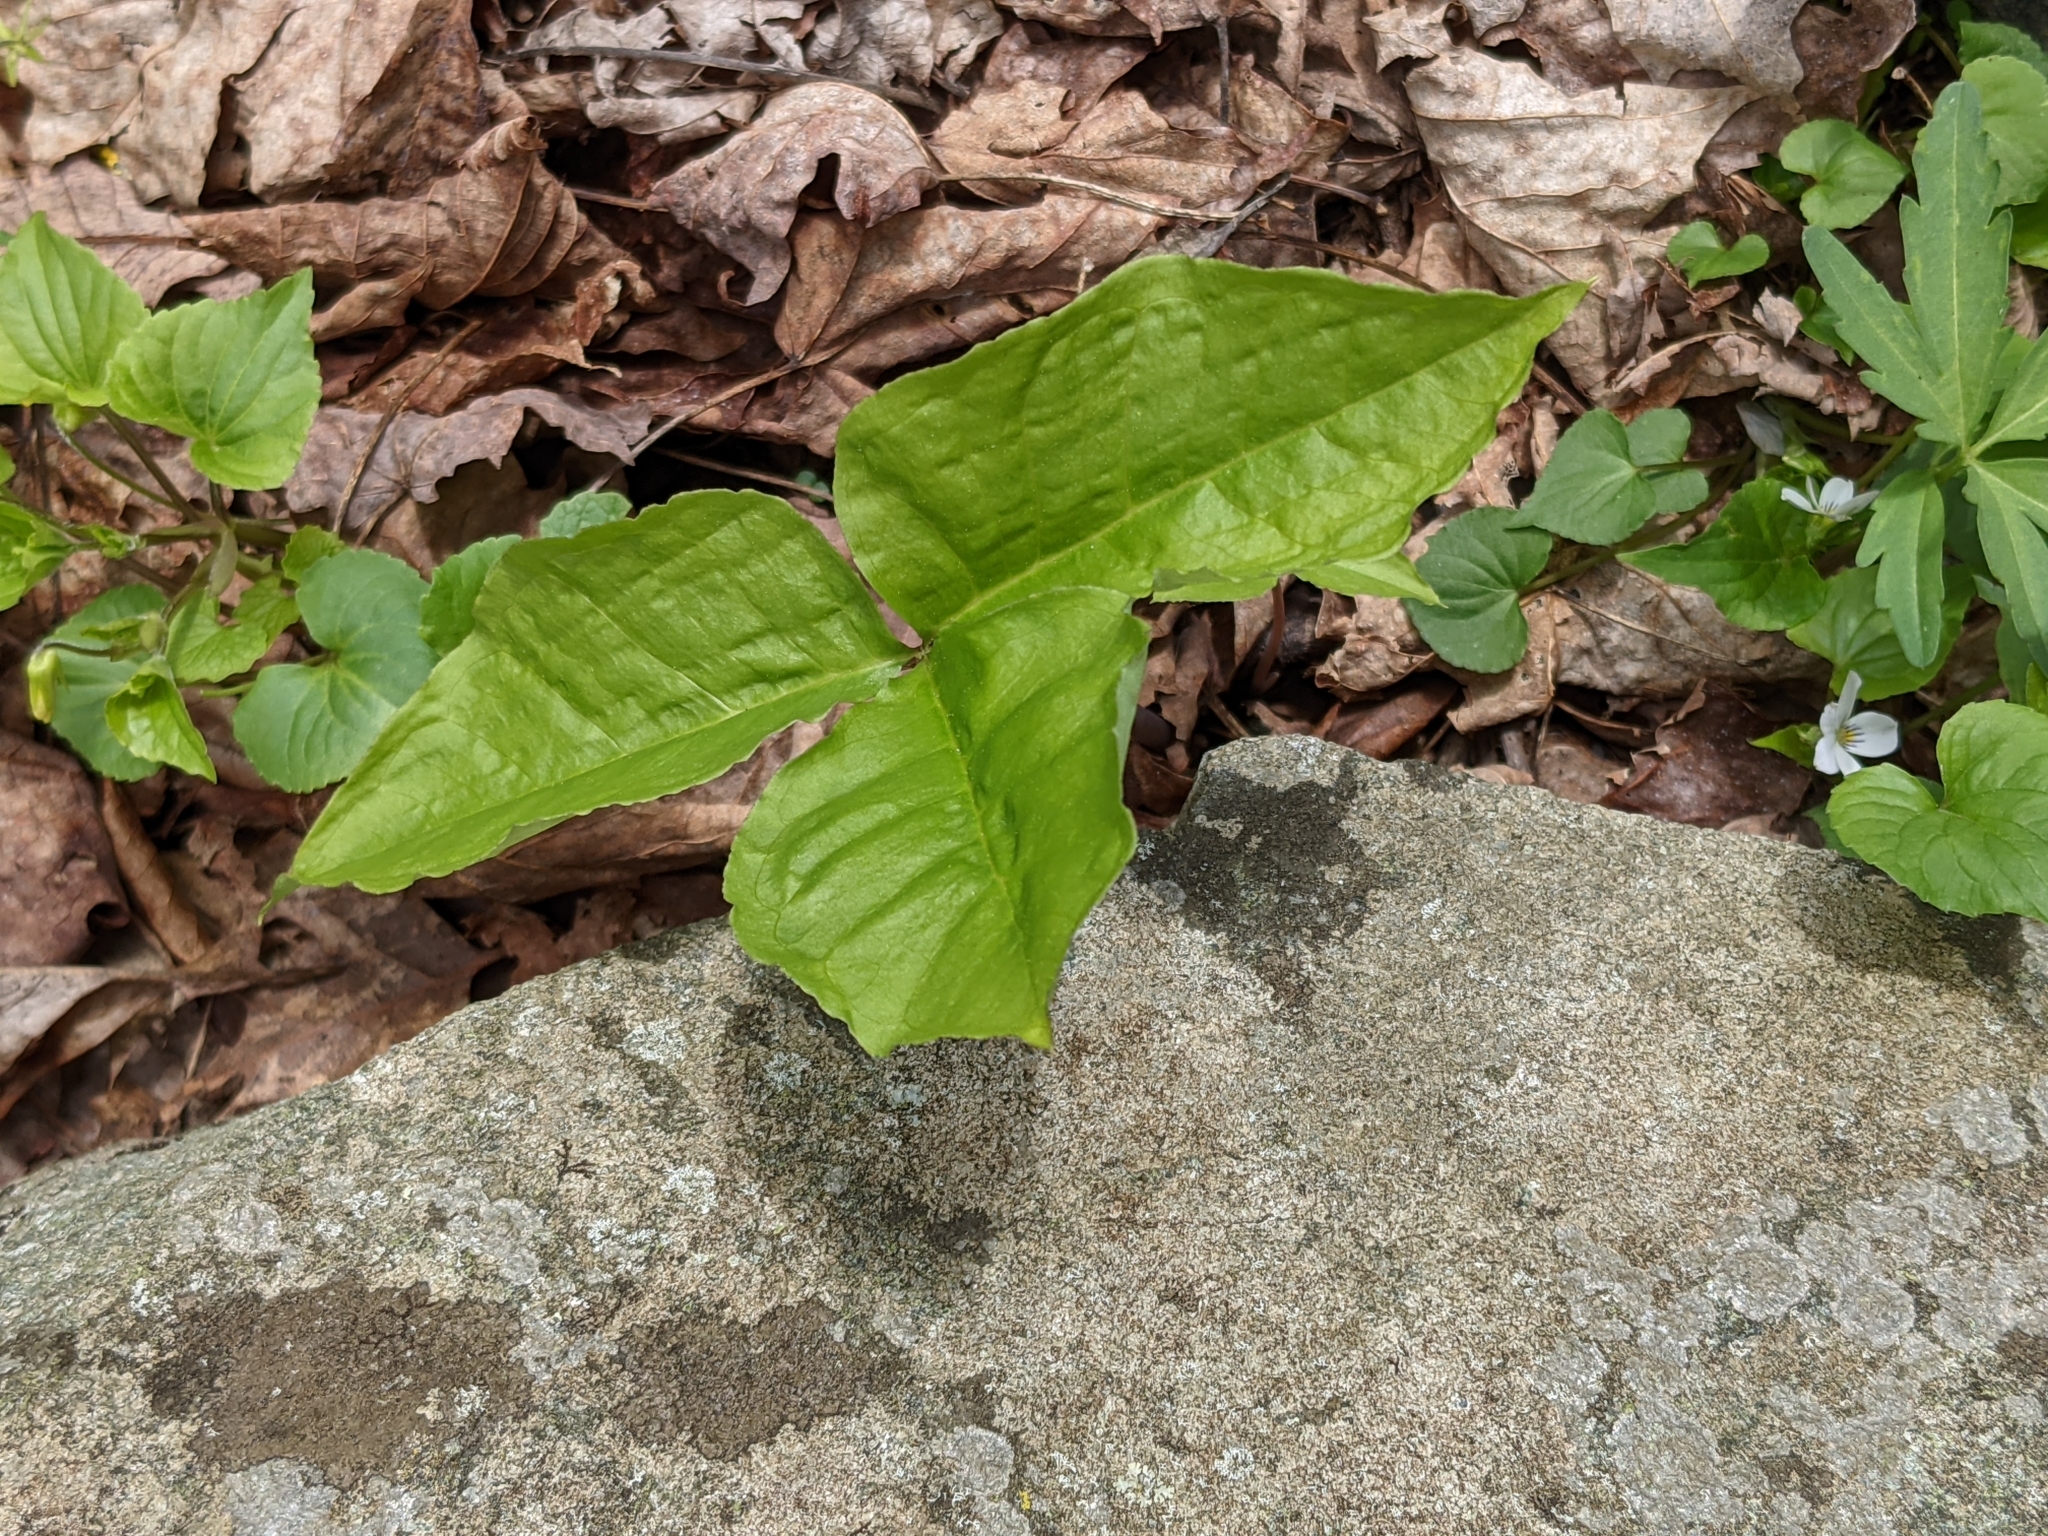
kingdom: Plantae
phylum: Tracheophyta
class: Liliopsida
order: Alismatales
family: Araceae
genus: Arisaema
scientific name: Arisaema triphyllum
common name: Jack-in-the-pulpit
